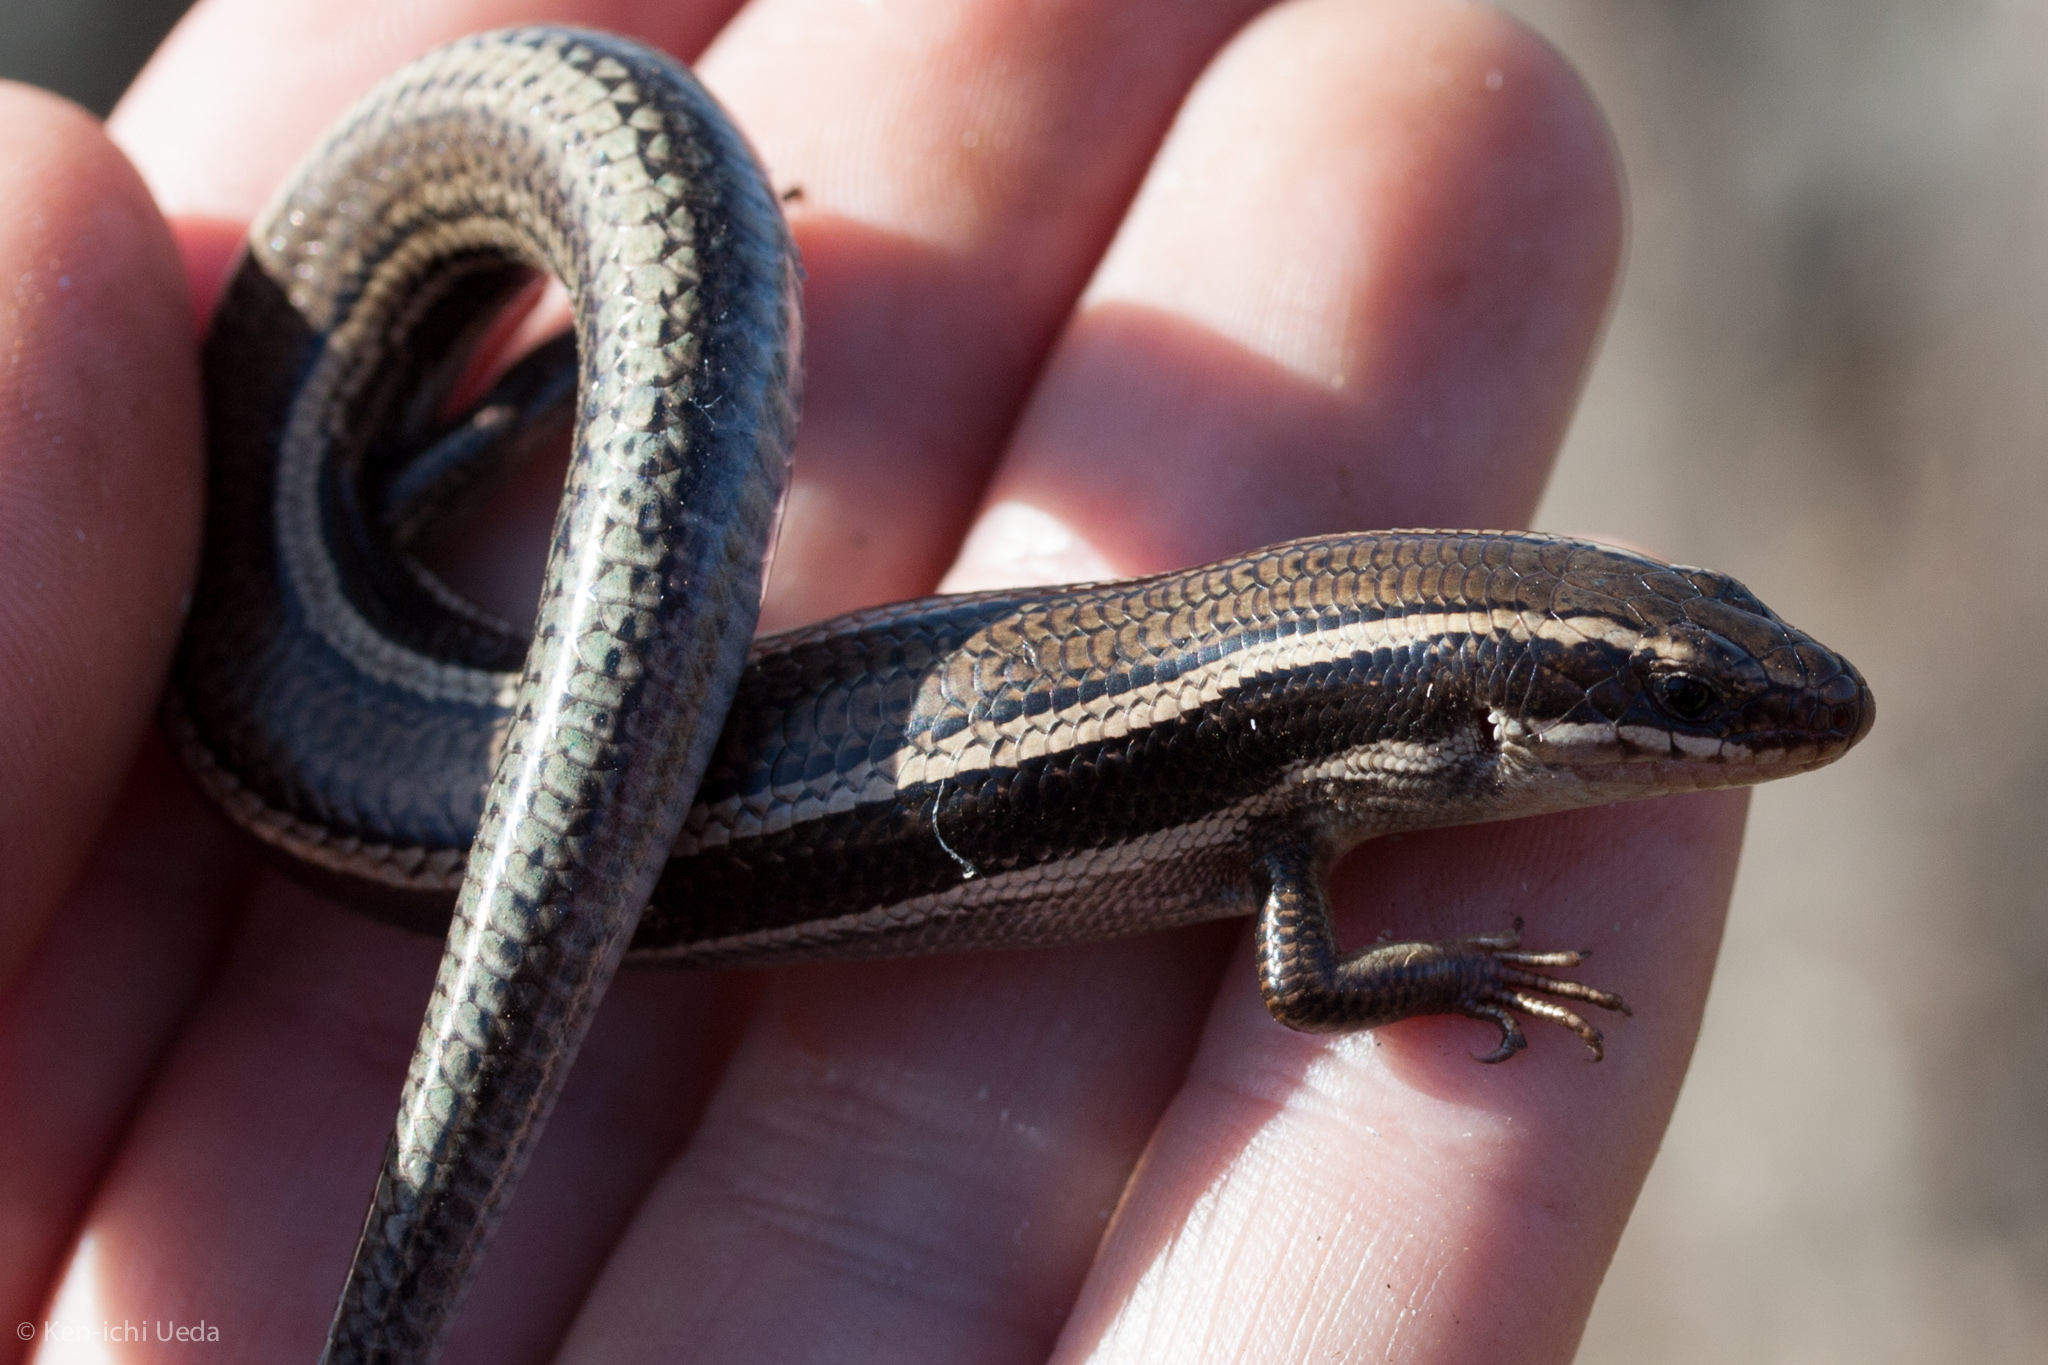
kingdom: Animalia
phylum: Chordata
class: Squamata
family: Scincidae
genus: Plestiodon
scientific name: Plestiodon skiltonianus
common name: Coronado island skink [interparietalis]
